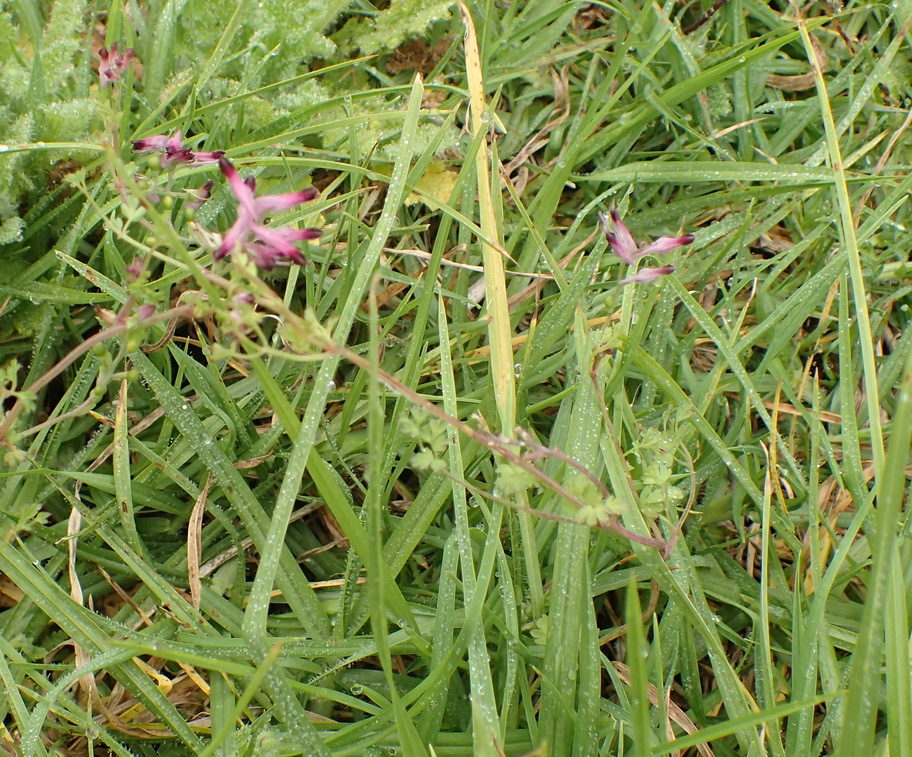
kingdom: Plantae
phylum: Tracheophyta
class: Magnoliopsida
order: Ranunculales
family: Papaveraceae
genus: Fumaria
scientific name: Fumaria muralis
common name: Common ramping-fumitory
